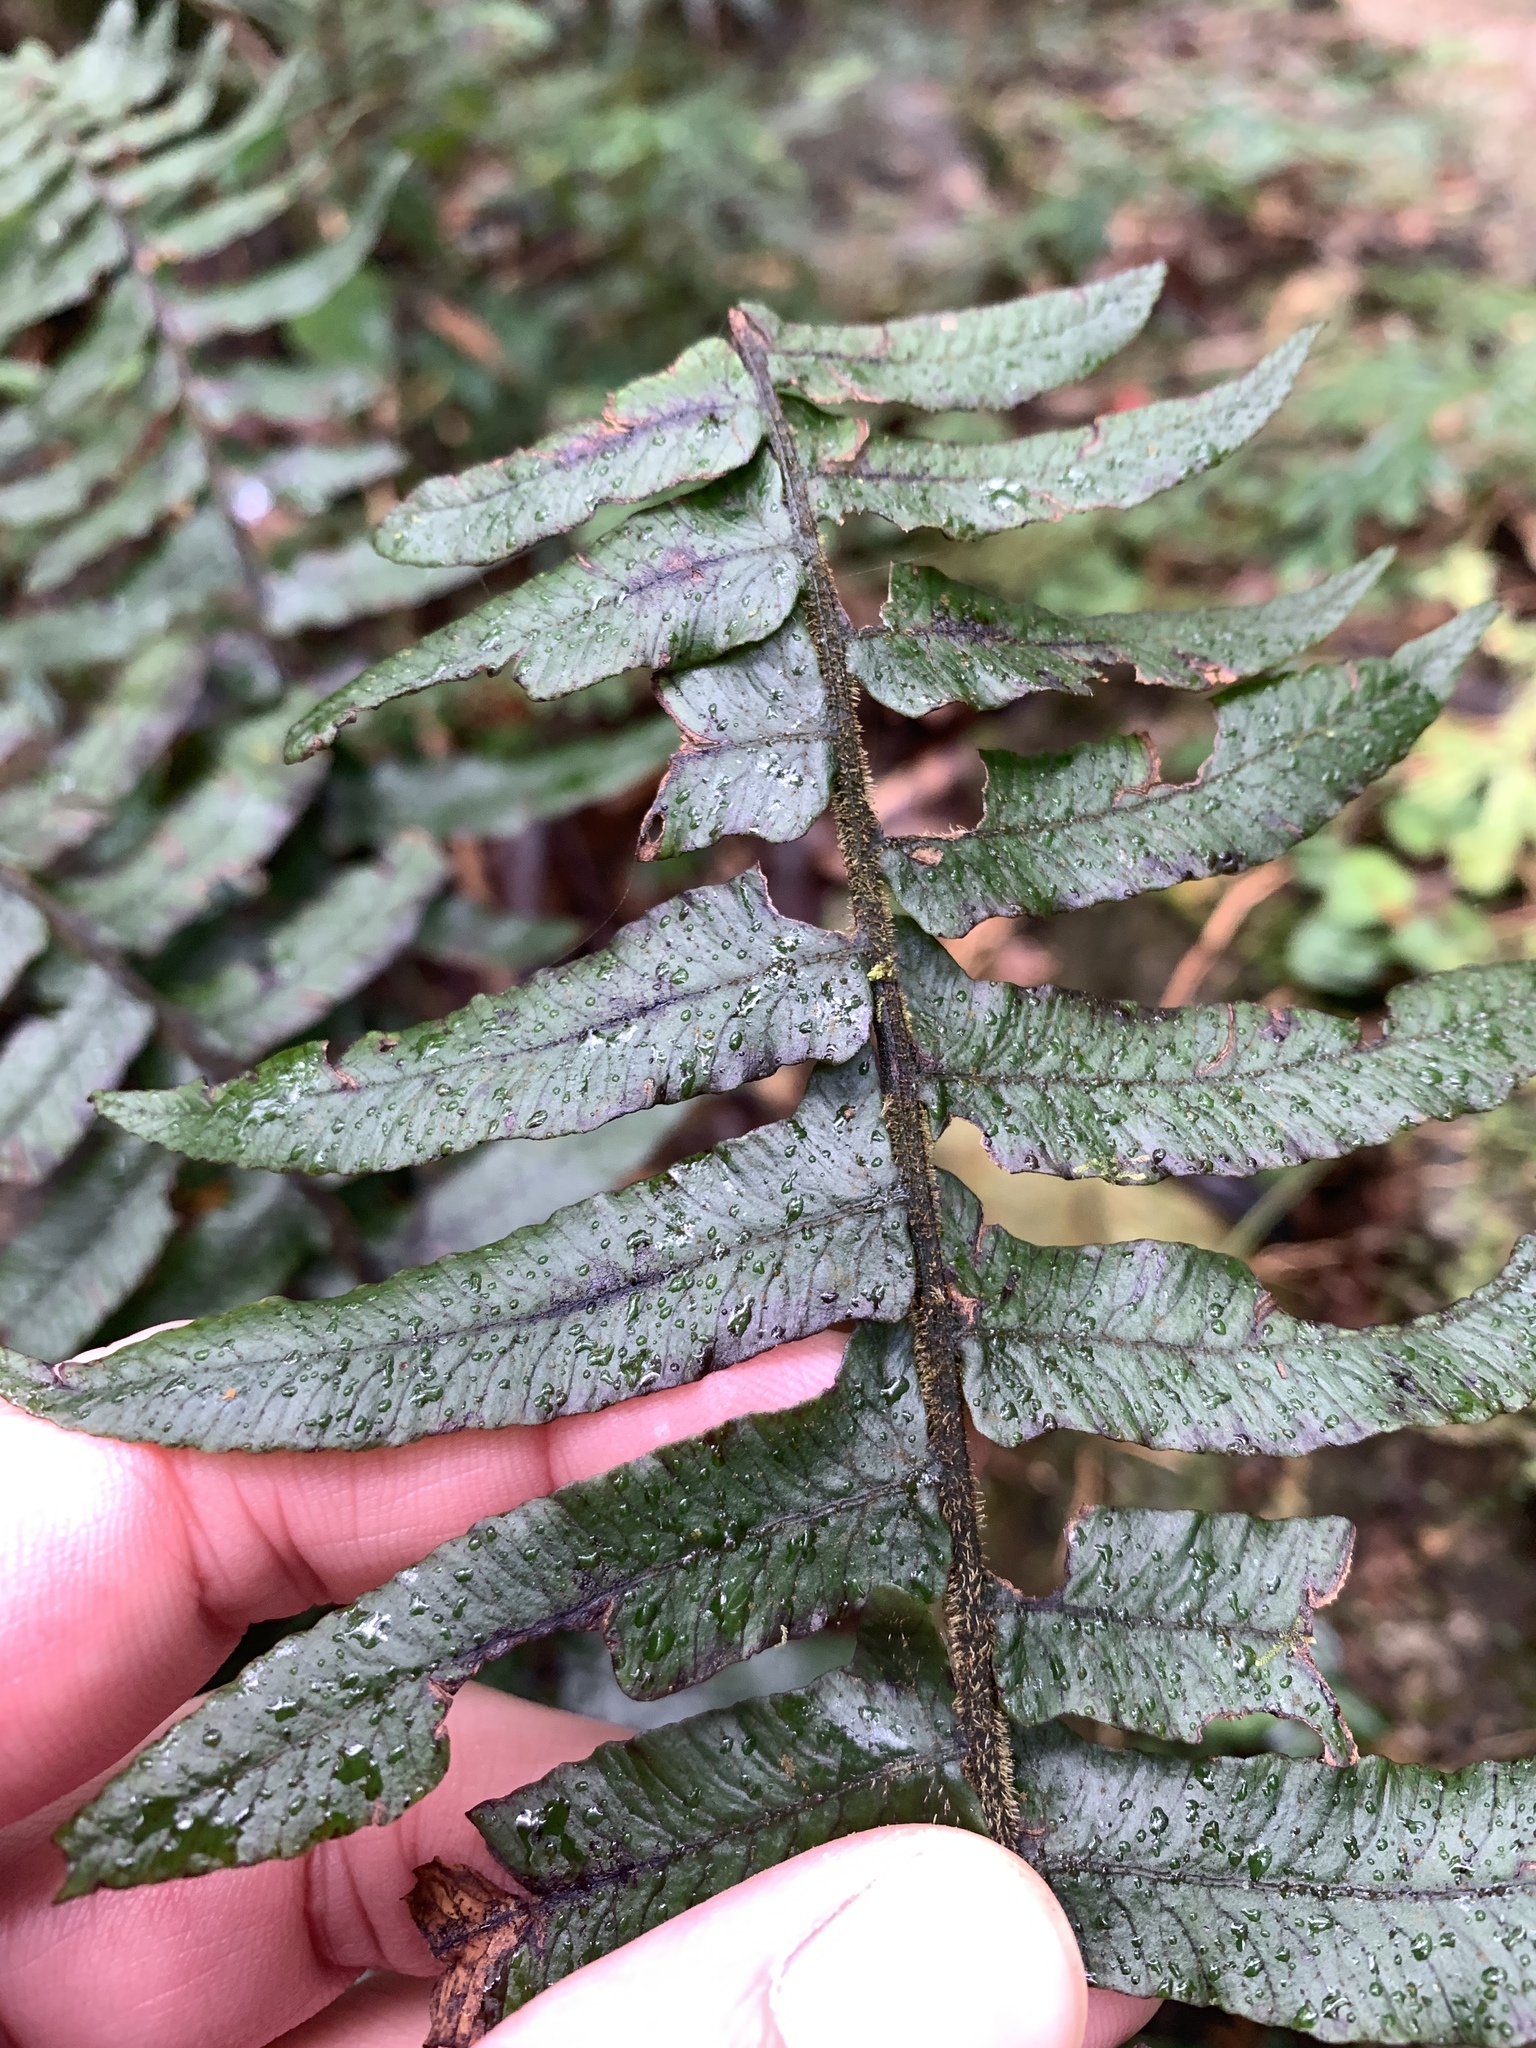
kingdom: Plantae
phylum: Tracheophyta
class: Polypodiopsida
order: Polypodiales
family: Athyriaceae
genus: Diplazium
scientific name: Diplazium pullingeri
